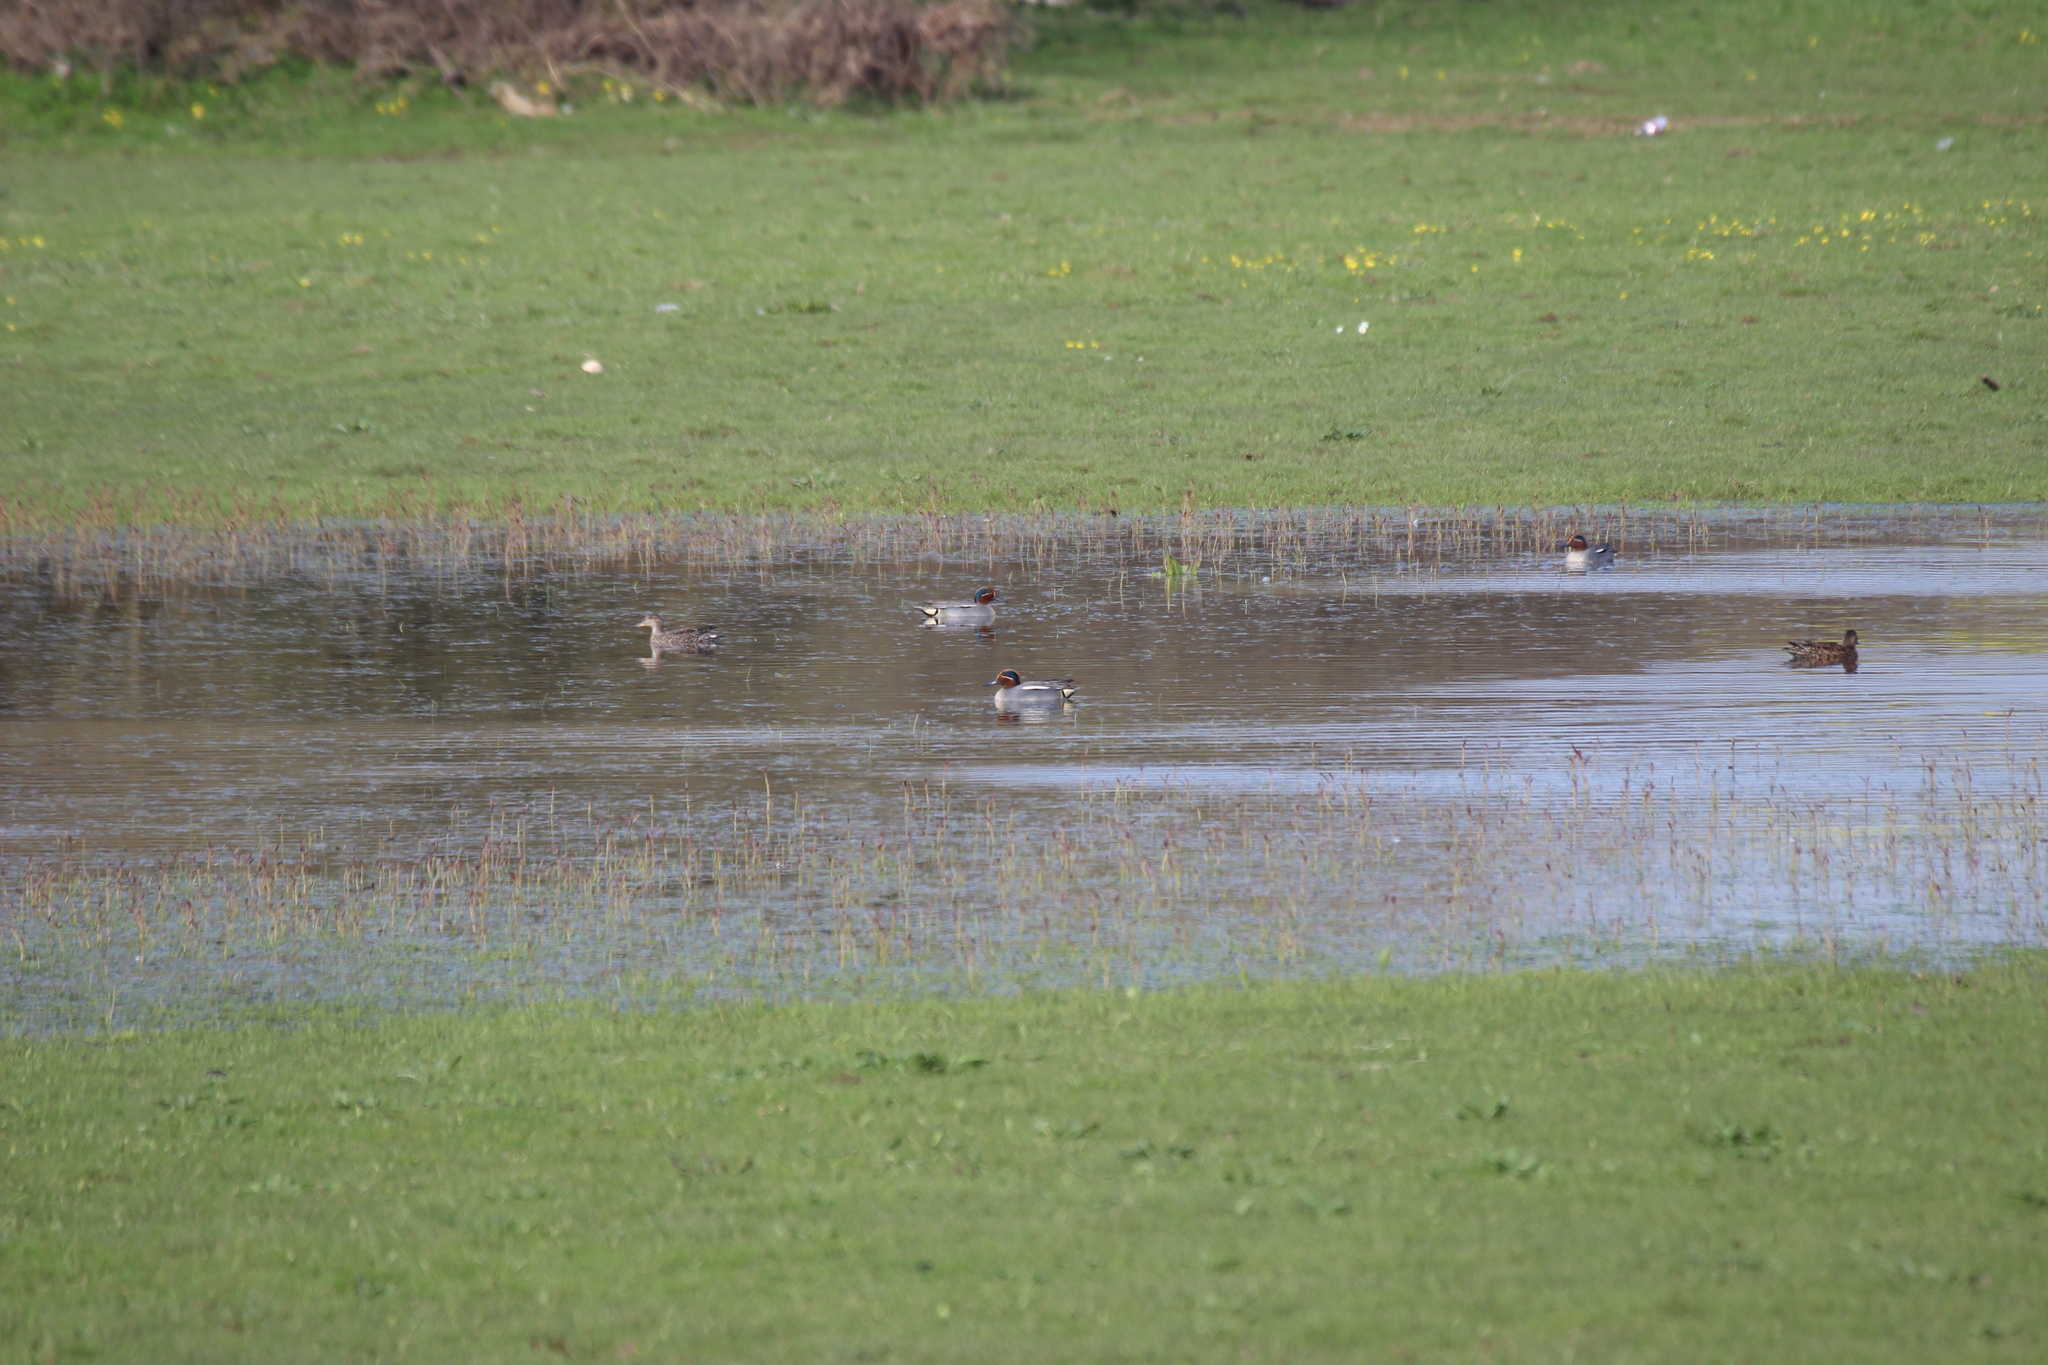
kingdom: Animalia
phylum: Chordata
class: Aves
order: Anseriformes
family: Anatidae
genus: Anas
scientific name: Anas crecca
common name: Eurasian teal
